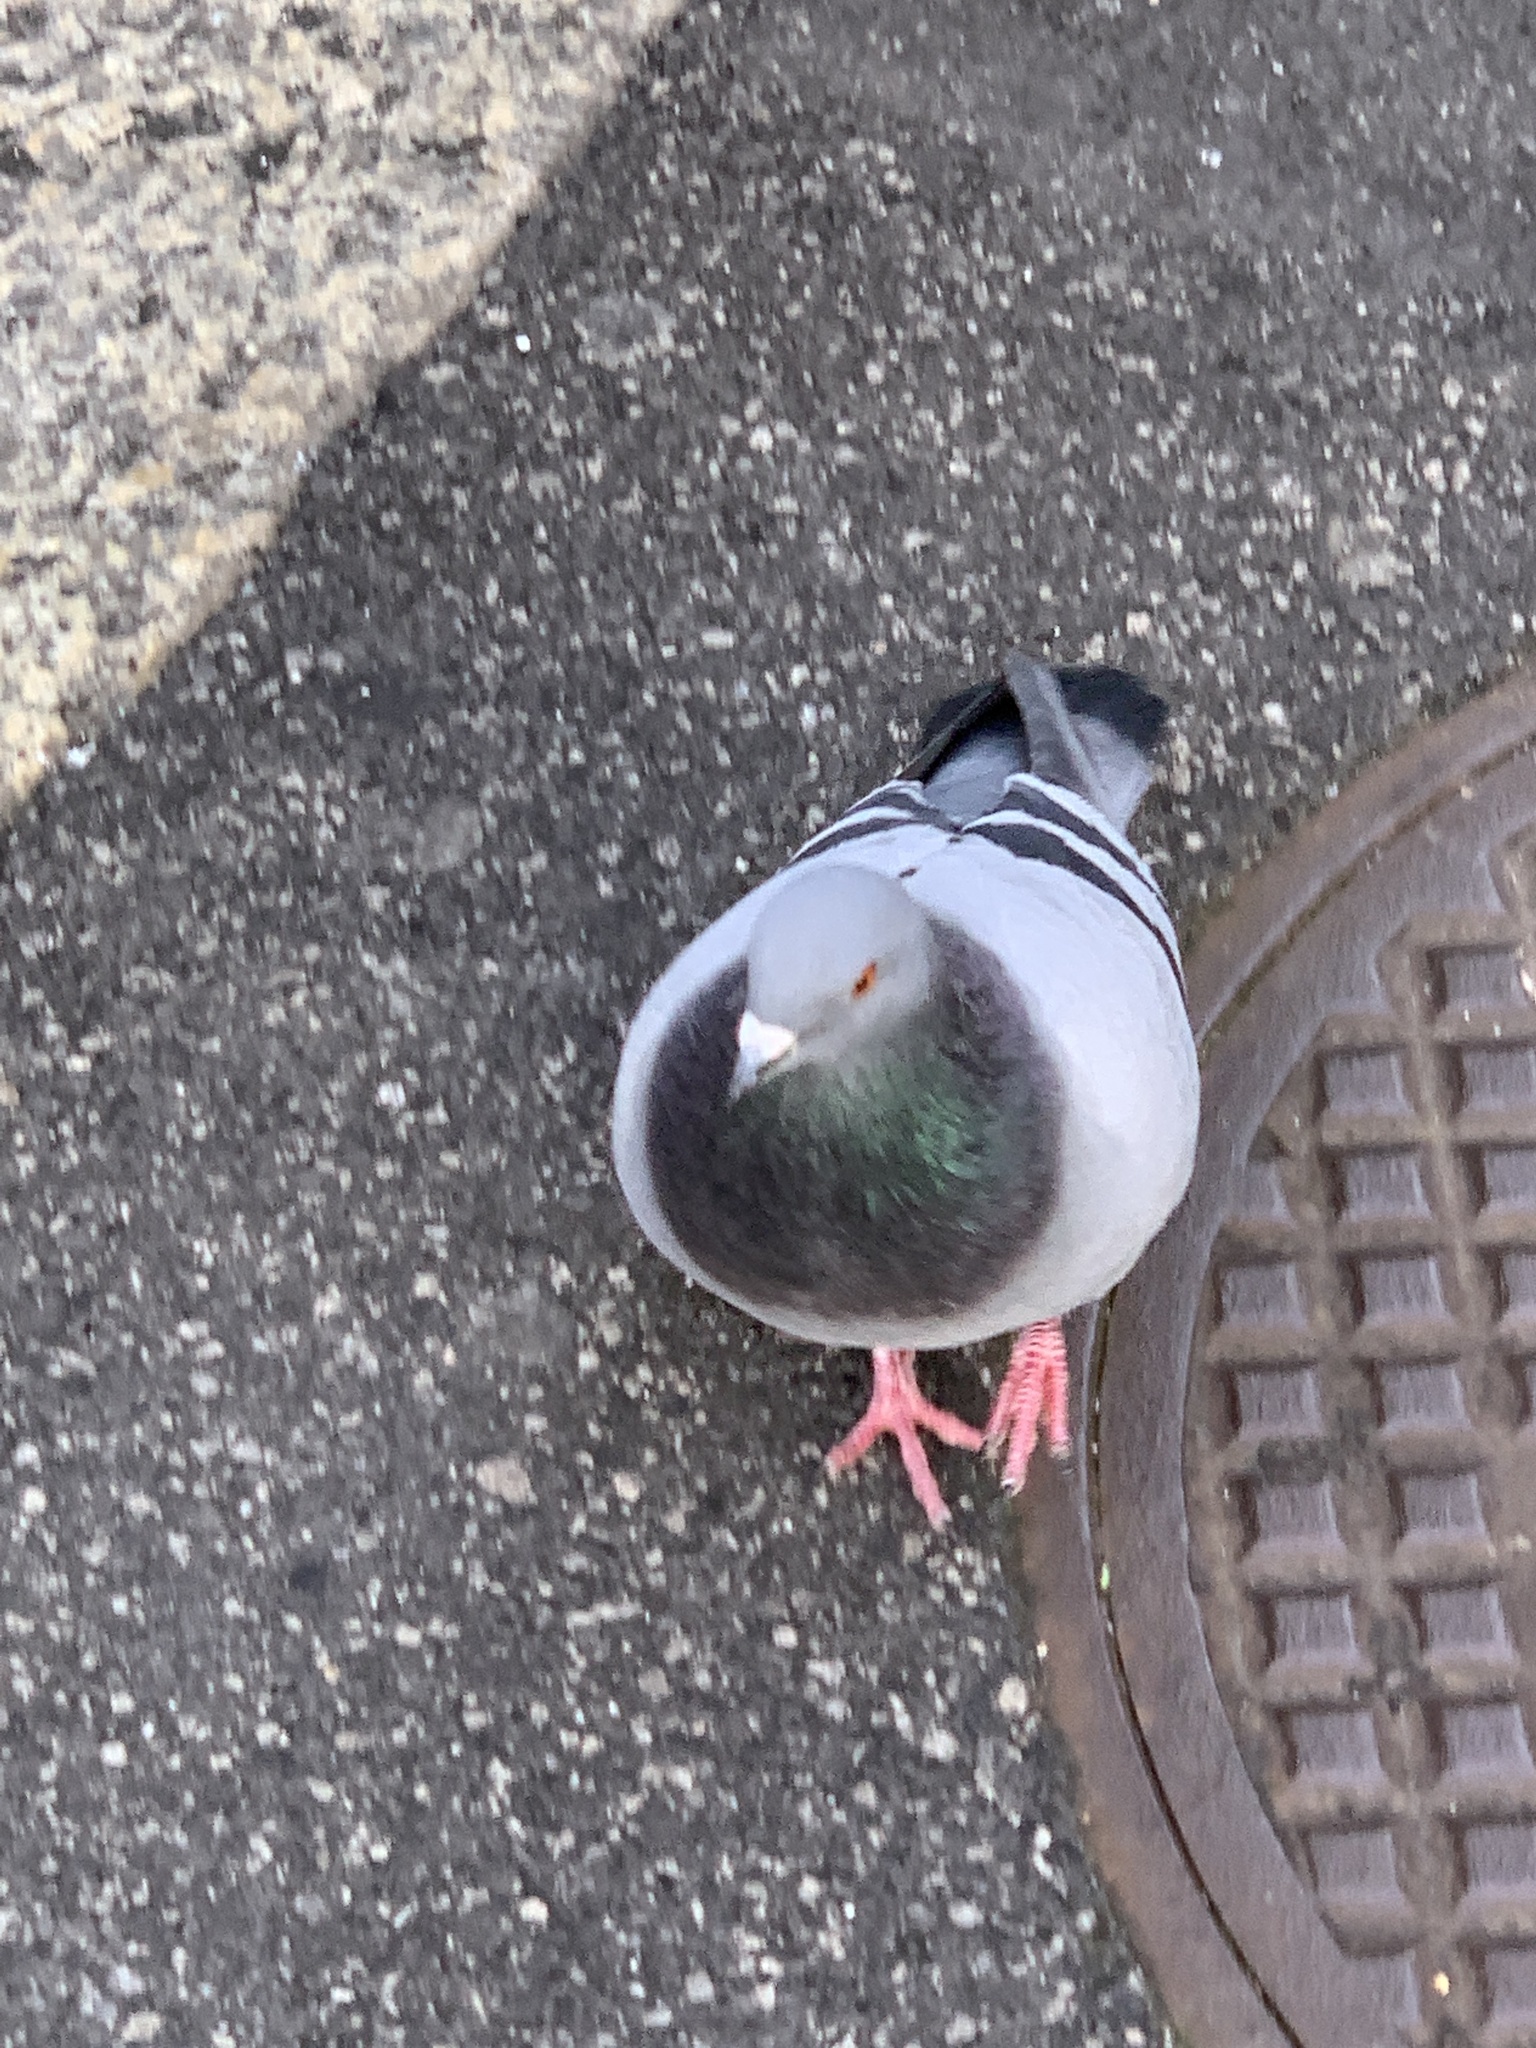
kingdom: Animalia
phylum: Chordata
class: Aves
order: Columbiformes
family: Columbidae
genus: Columba
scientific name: Columba livia
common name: Rock pigeon
